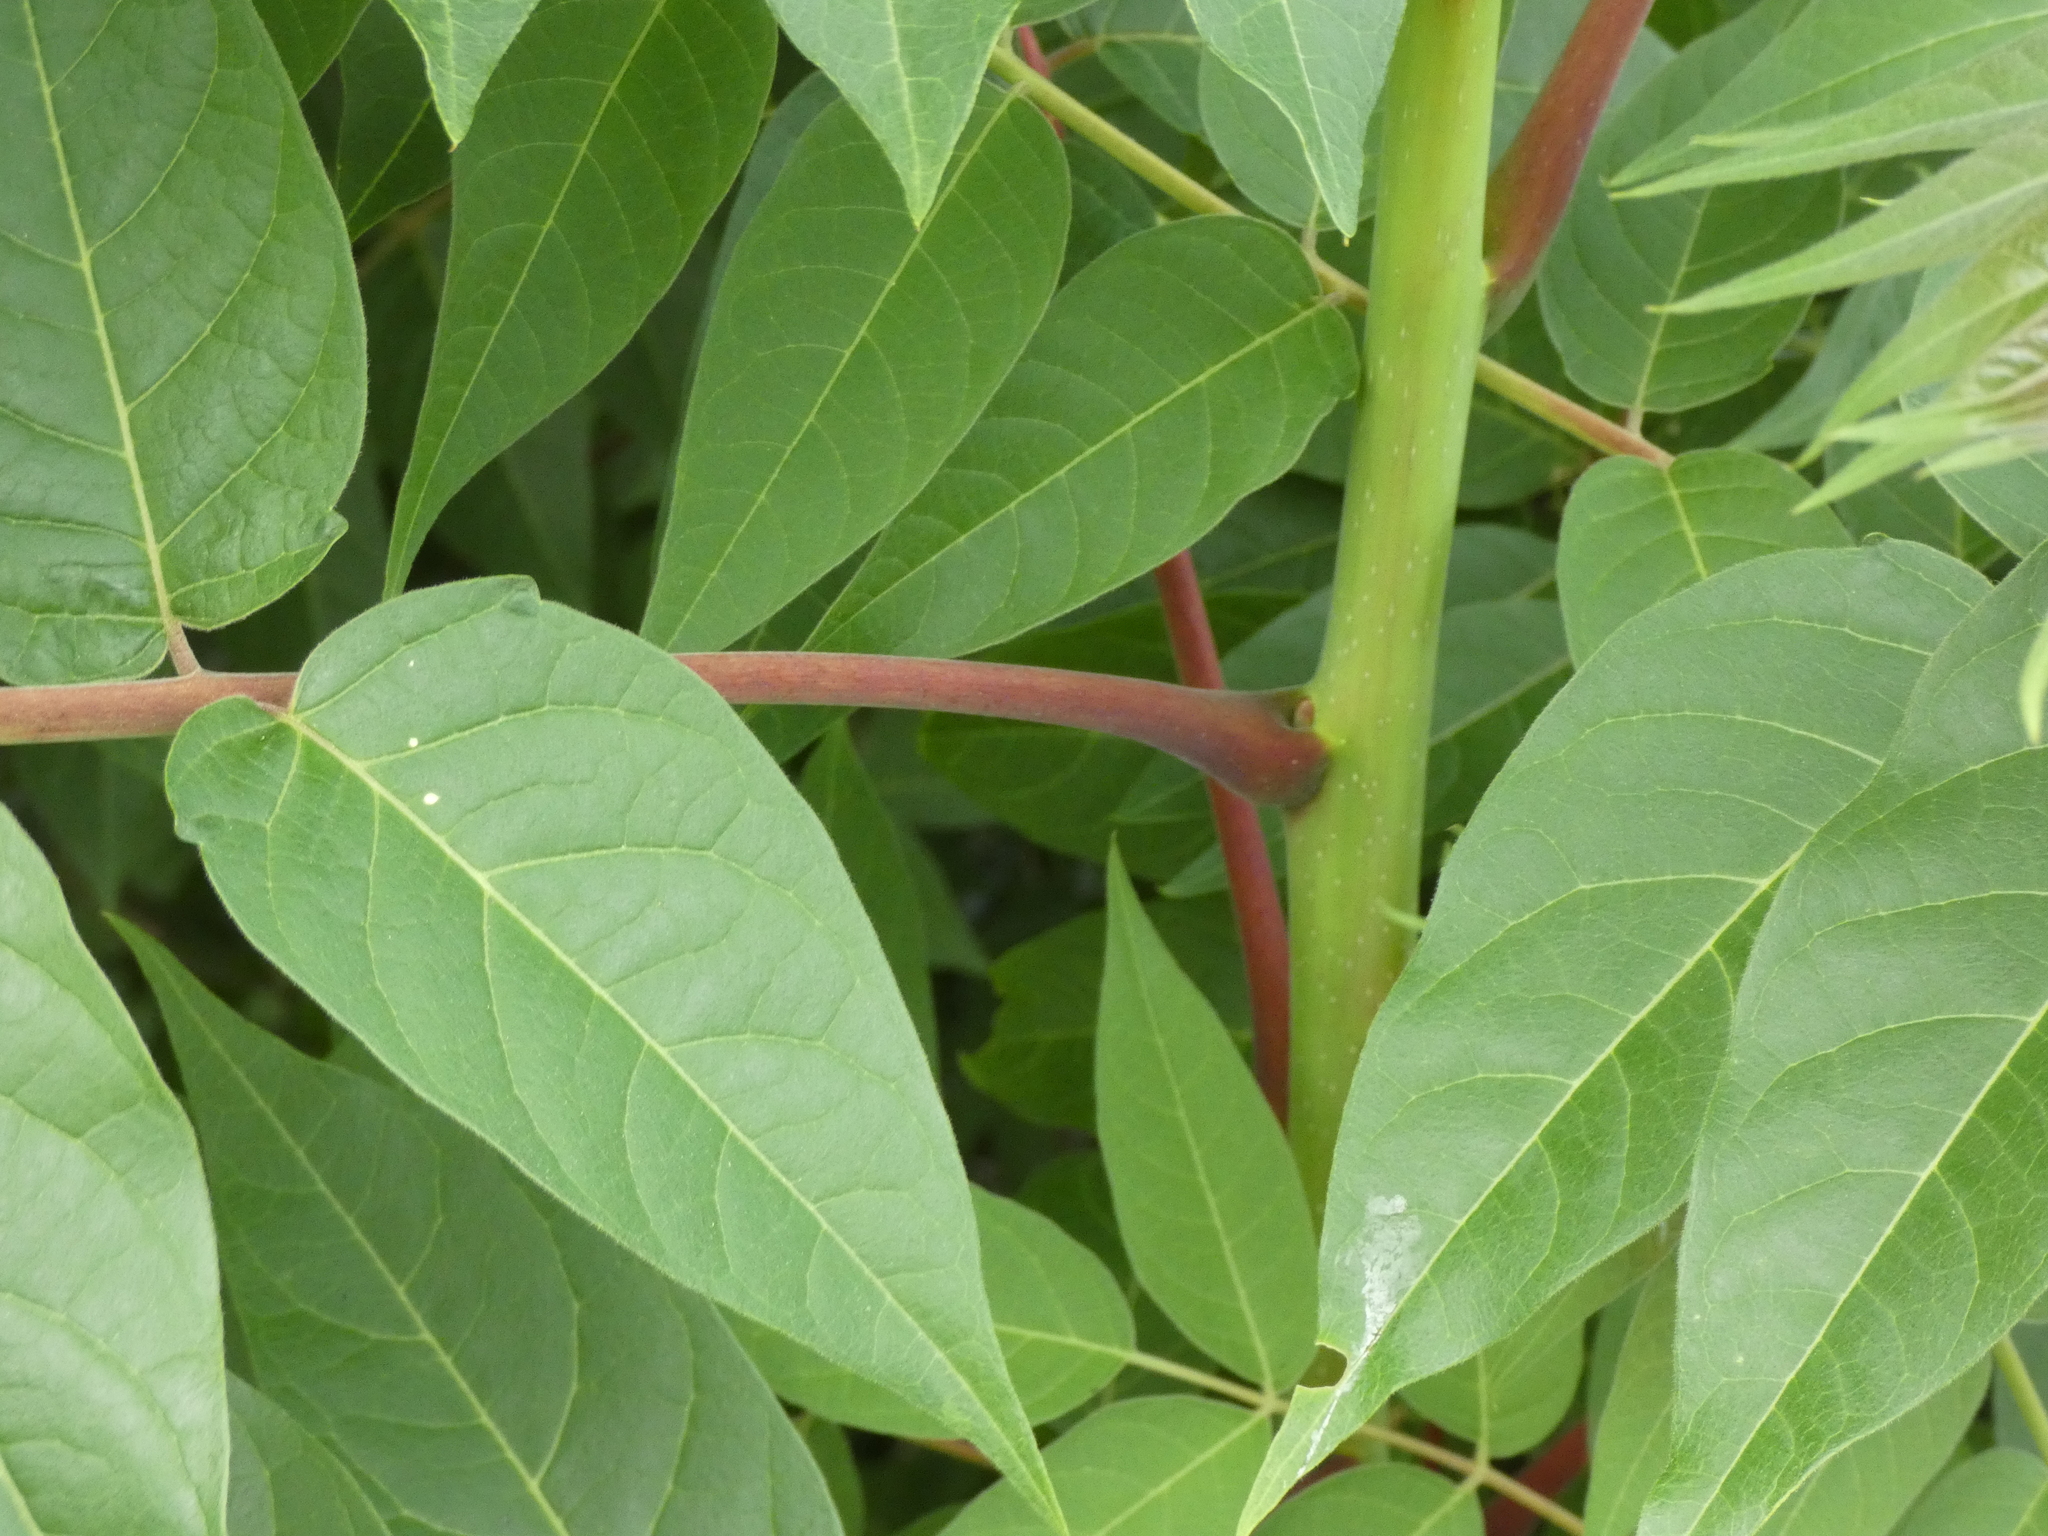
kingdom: Plantae
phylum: Tracheophyta
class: Magnoliopsida
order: Sapindales
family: Simaroubaceae
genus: Ailanthus
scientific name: Ailanthus altissima
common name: Tree-of-heaven
